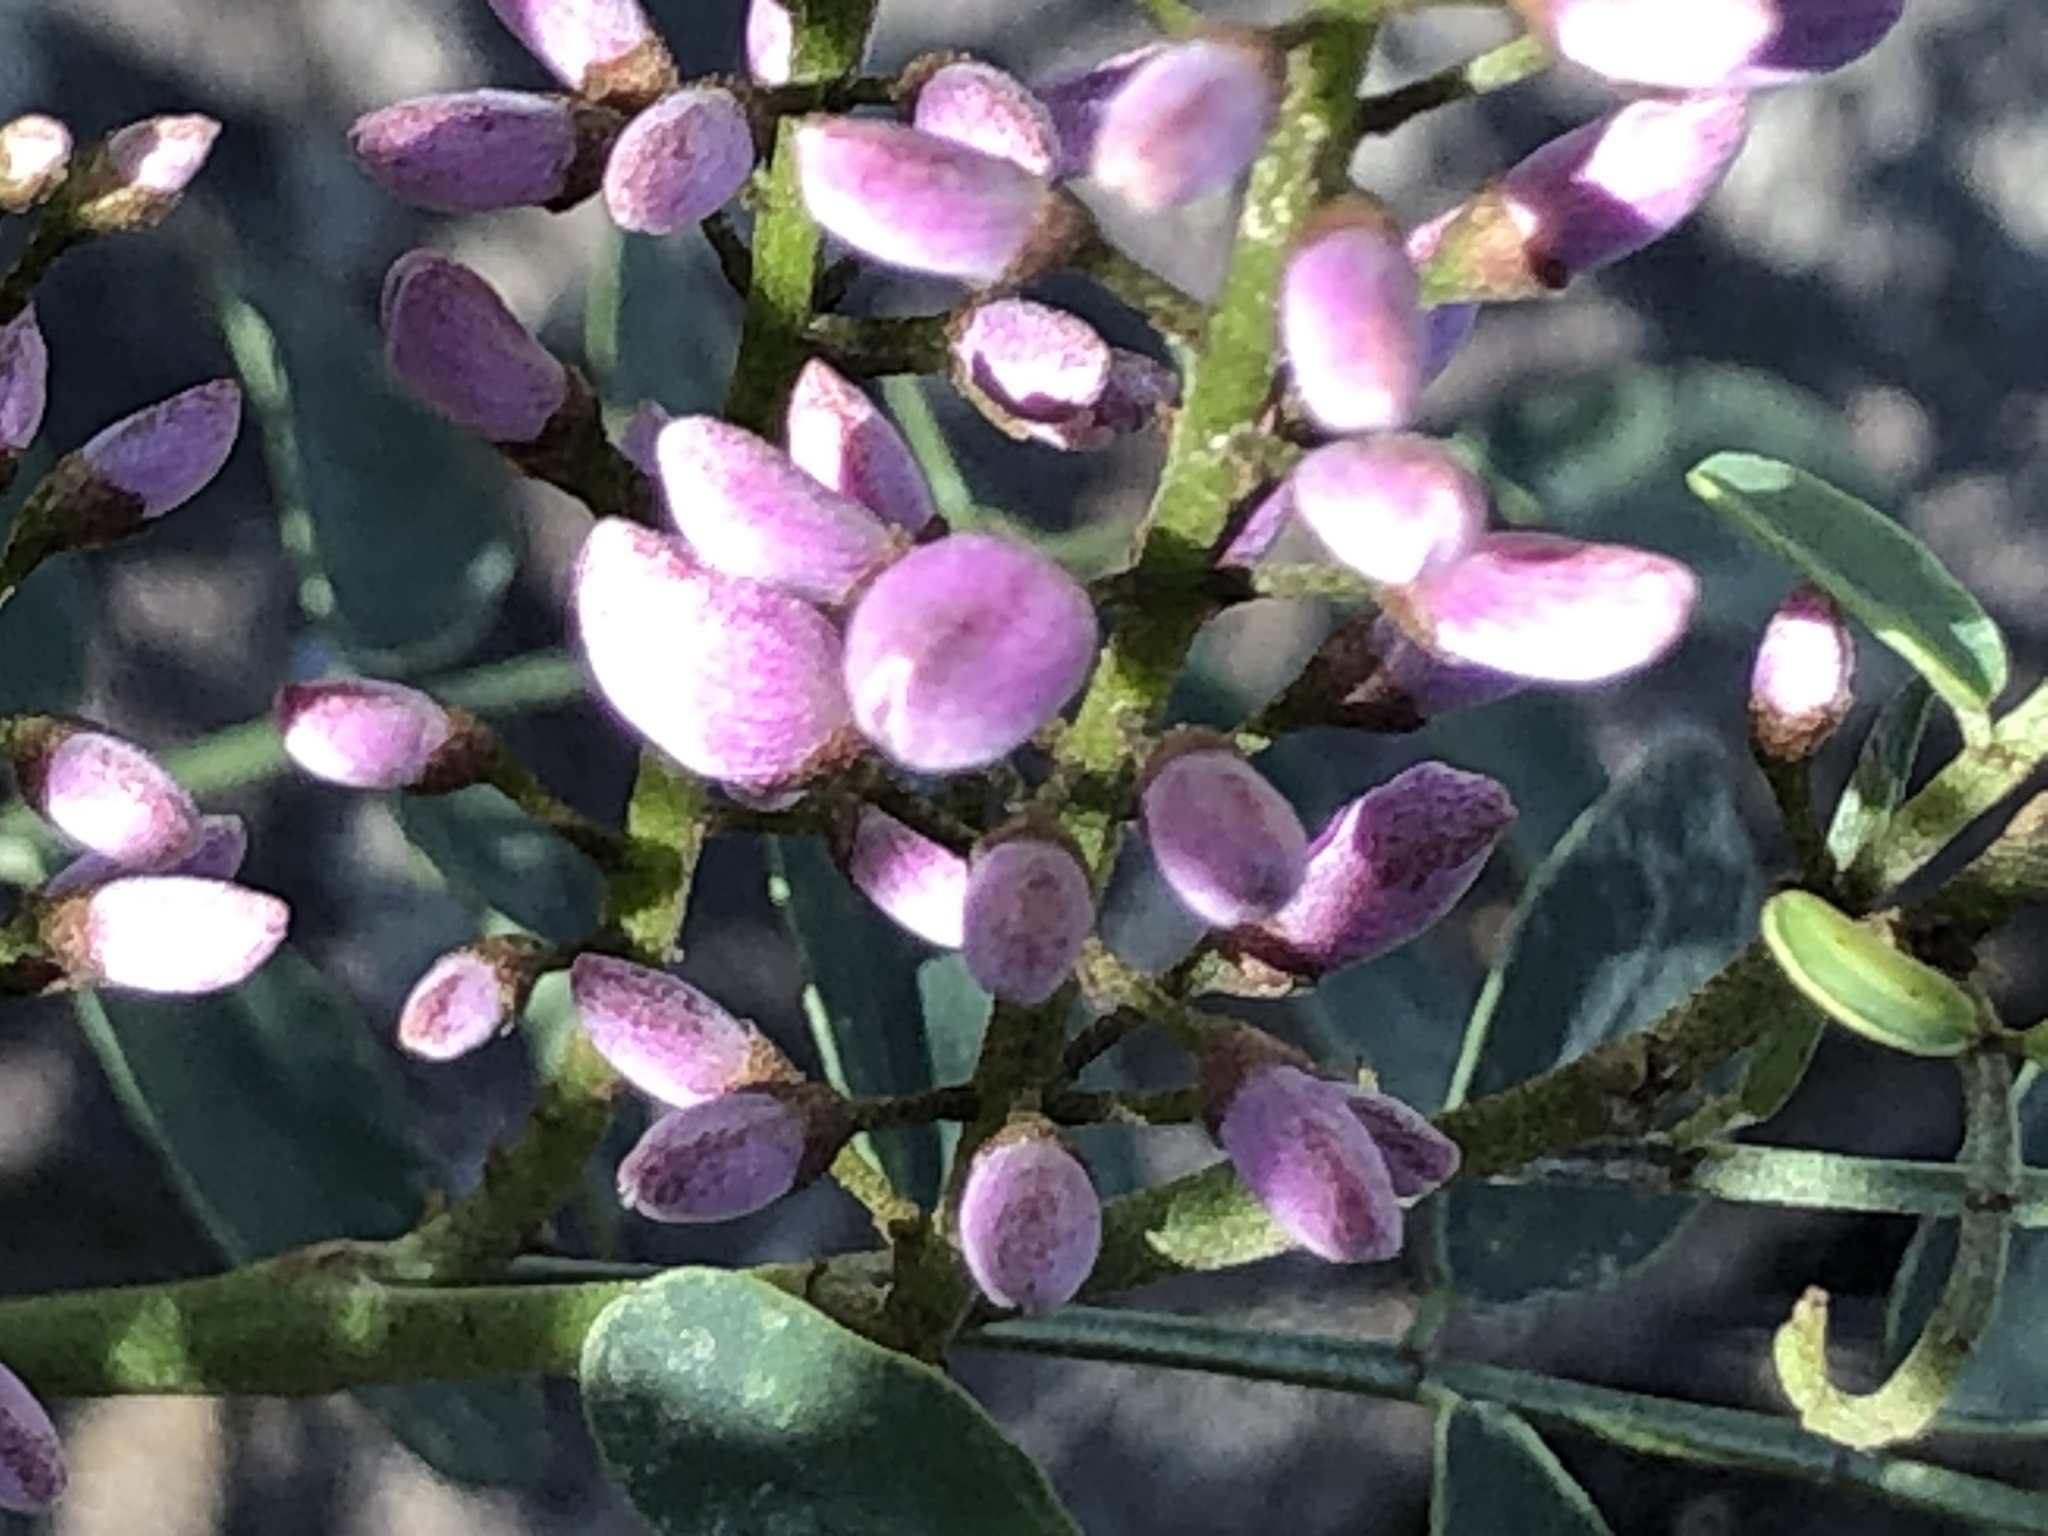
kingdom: Plantae
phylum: Tracheophyta
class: Magnoliopsida
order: Fabales
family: Fabaceae
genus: Indigofera
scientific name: Indigofera australis
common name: Australian indigo
